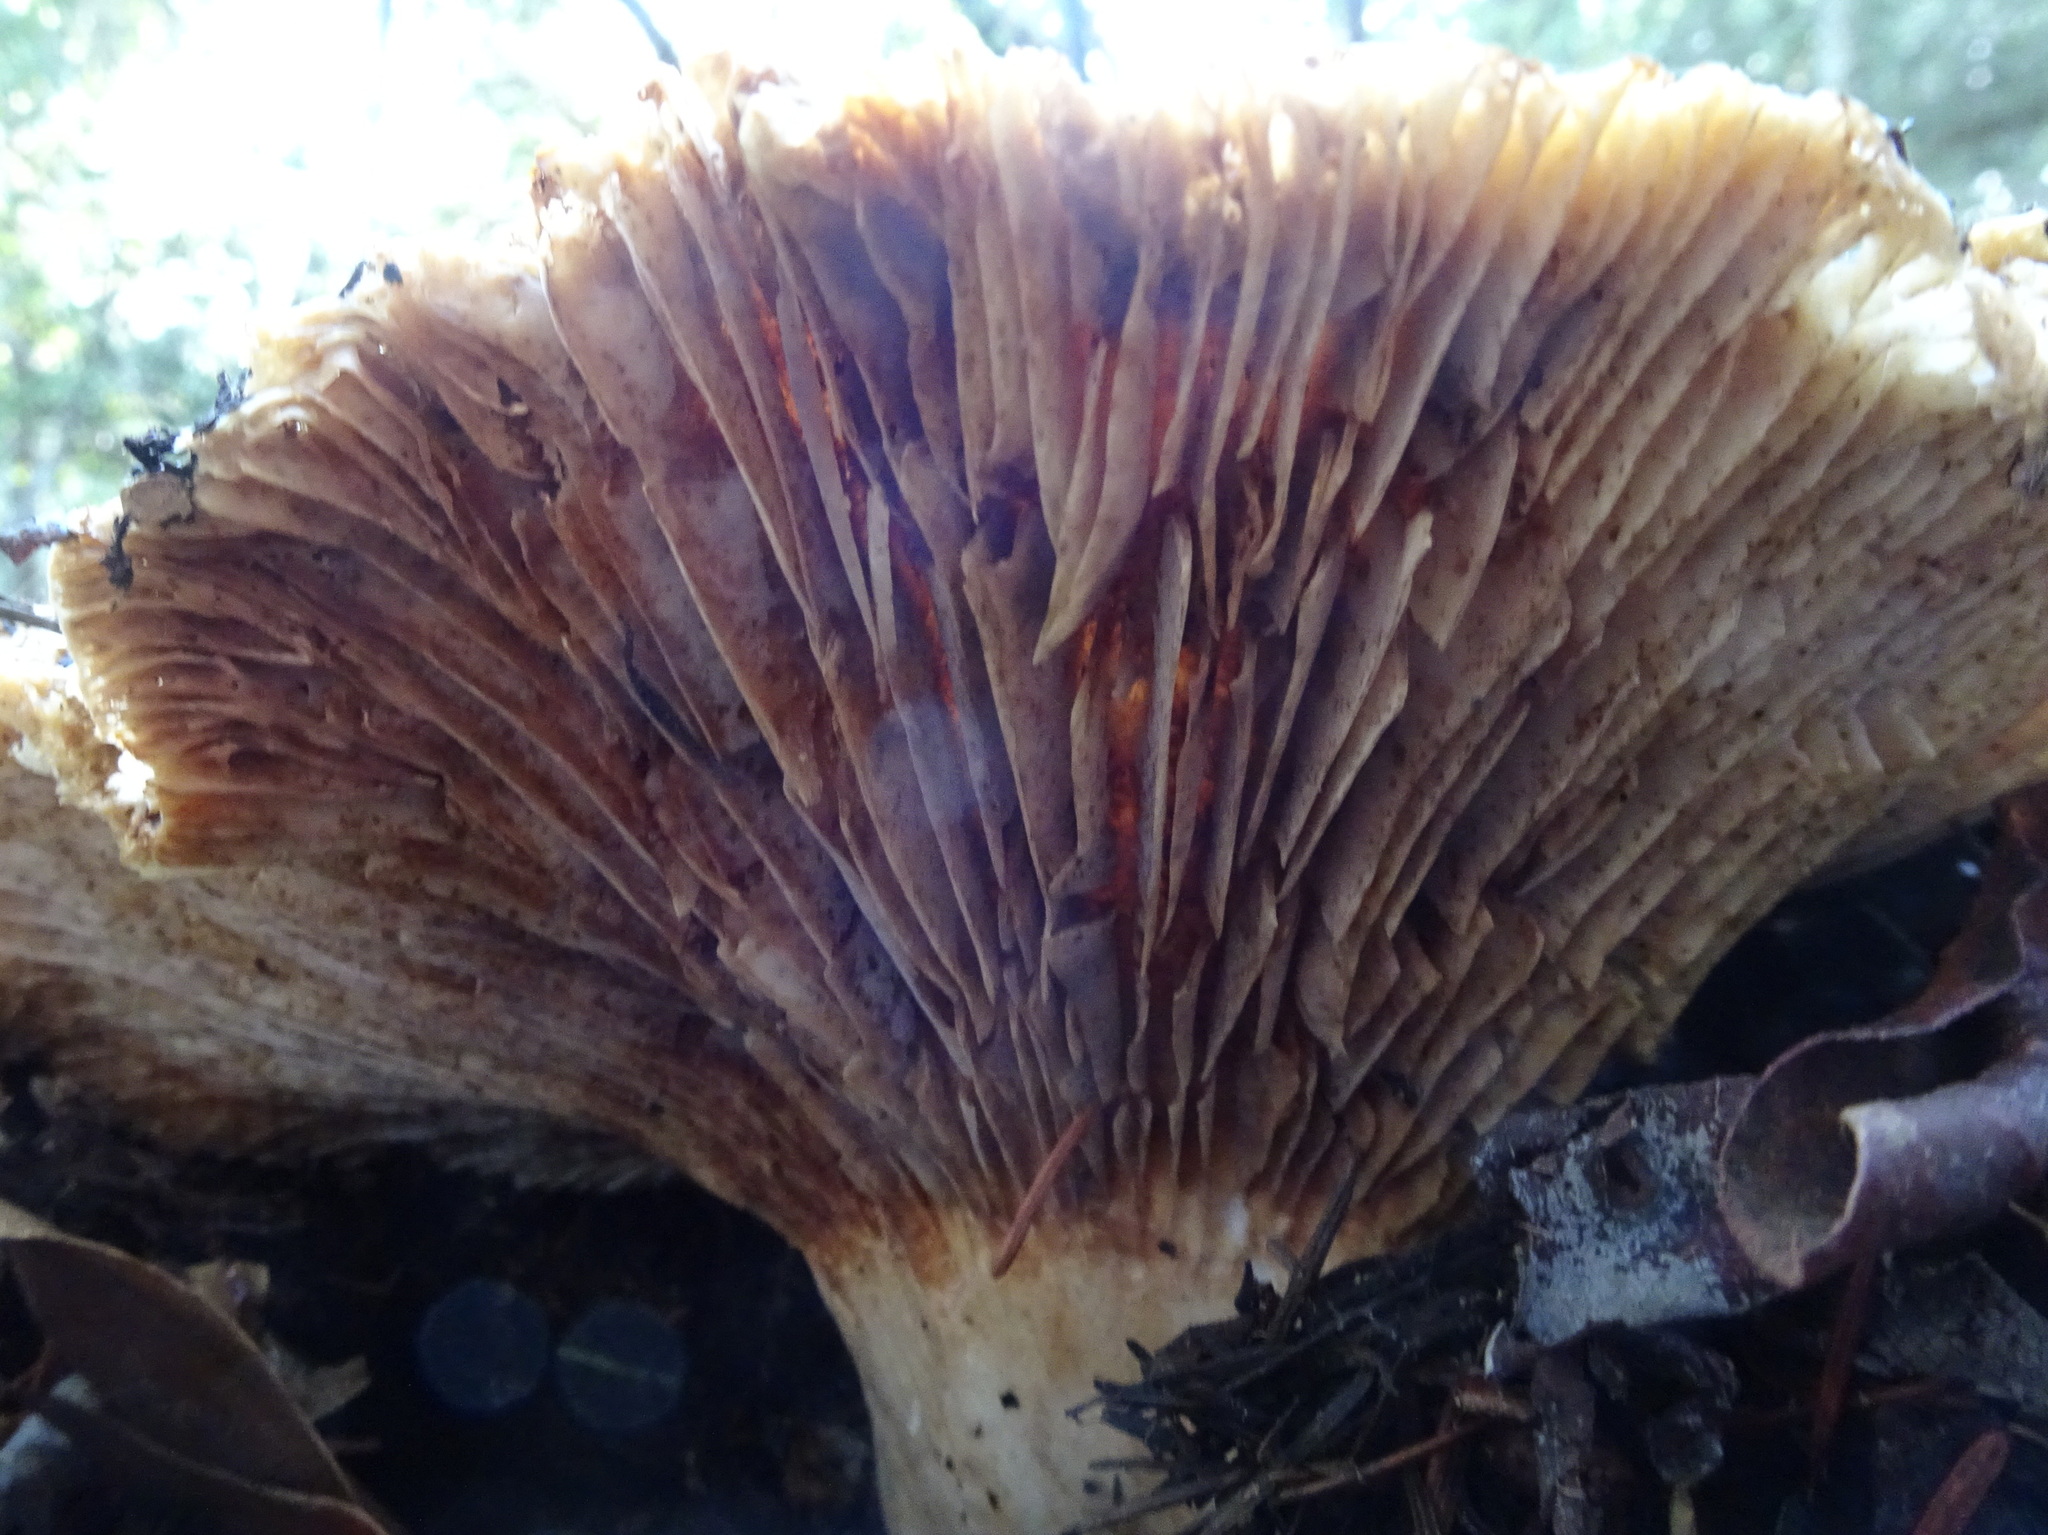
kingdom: Fungi
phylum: Basidiomycota
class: Agaricomycetes
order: Russulales
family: Russulaceae
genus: Russula
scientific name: Russula brevipes
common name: Short-stemmed russula
